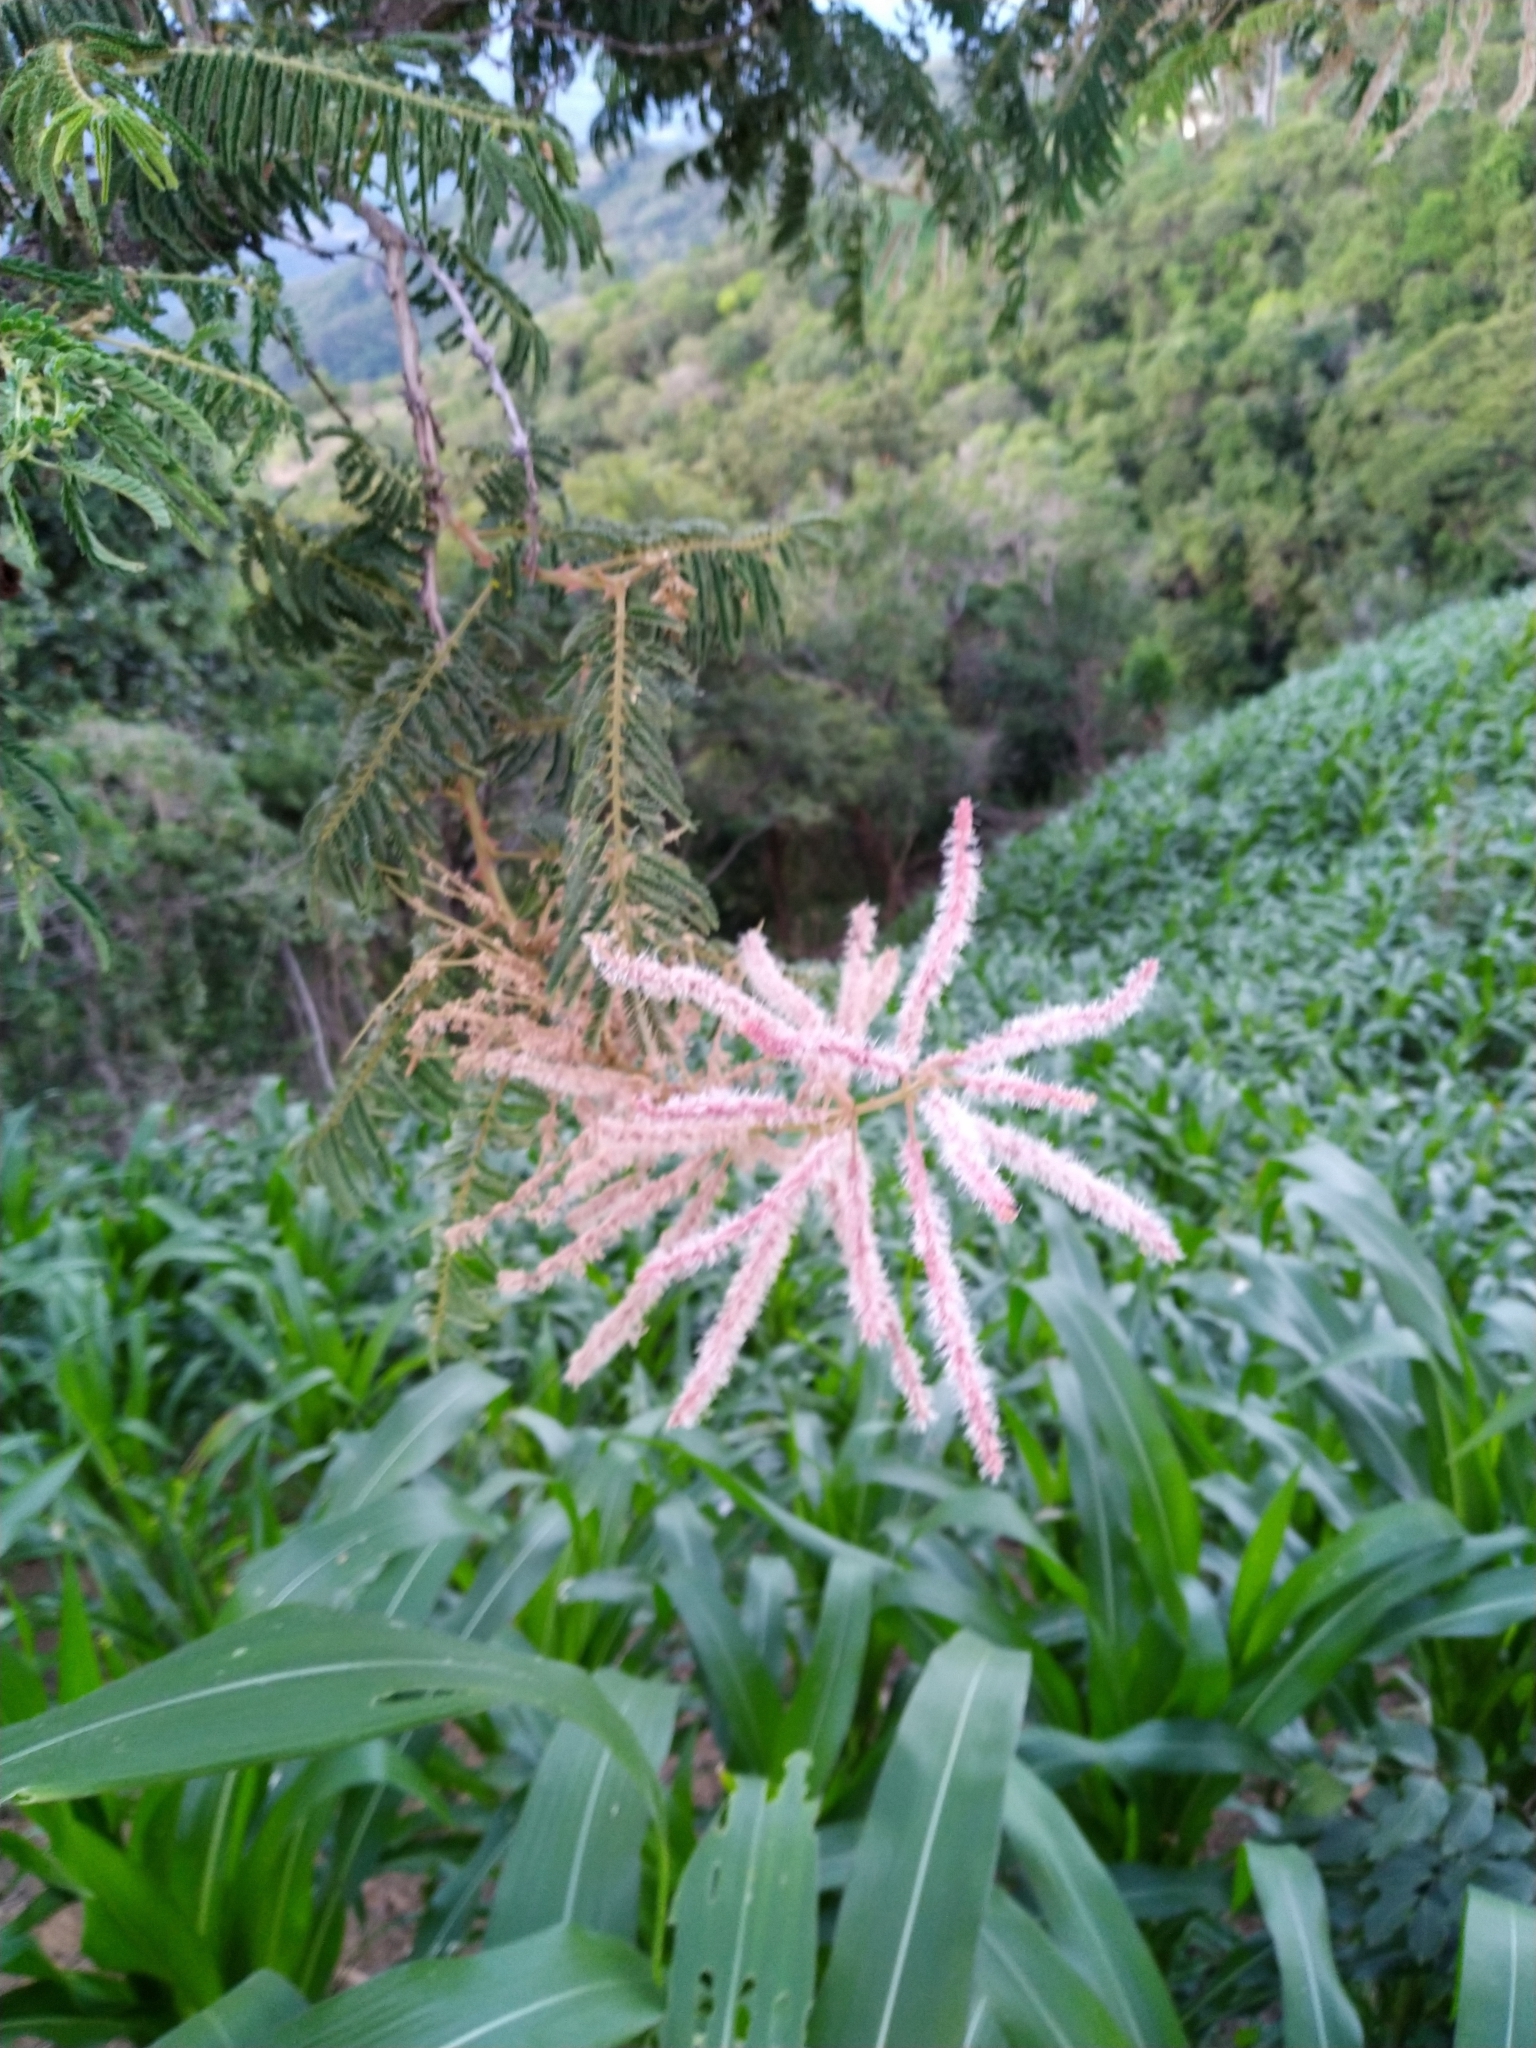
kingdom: Plantae
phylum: Tracheophyta
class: Magnoliopsida
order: Fabales
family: Fabaceae
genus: Mimosa
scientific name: Mimosa benthamii
